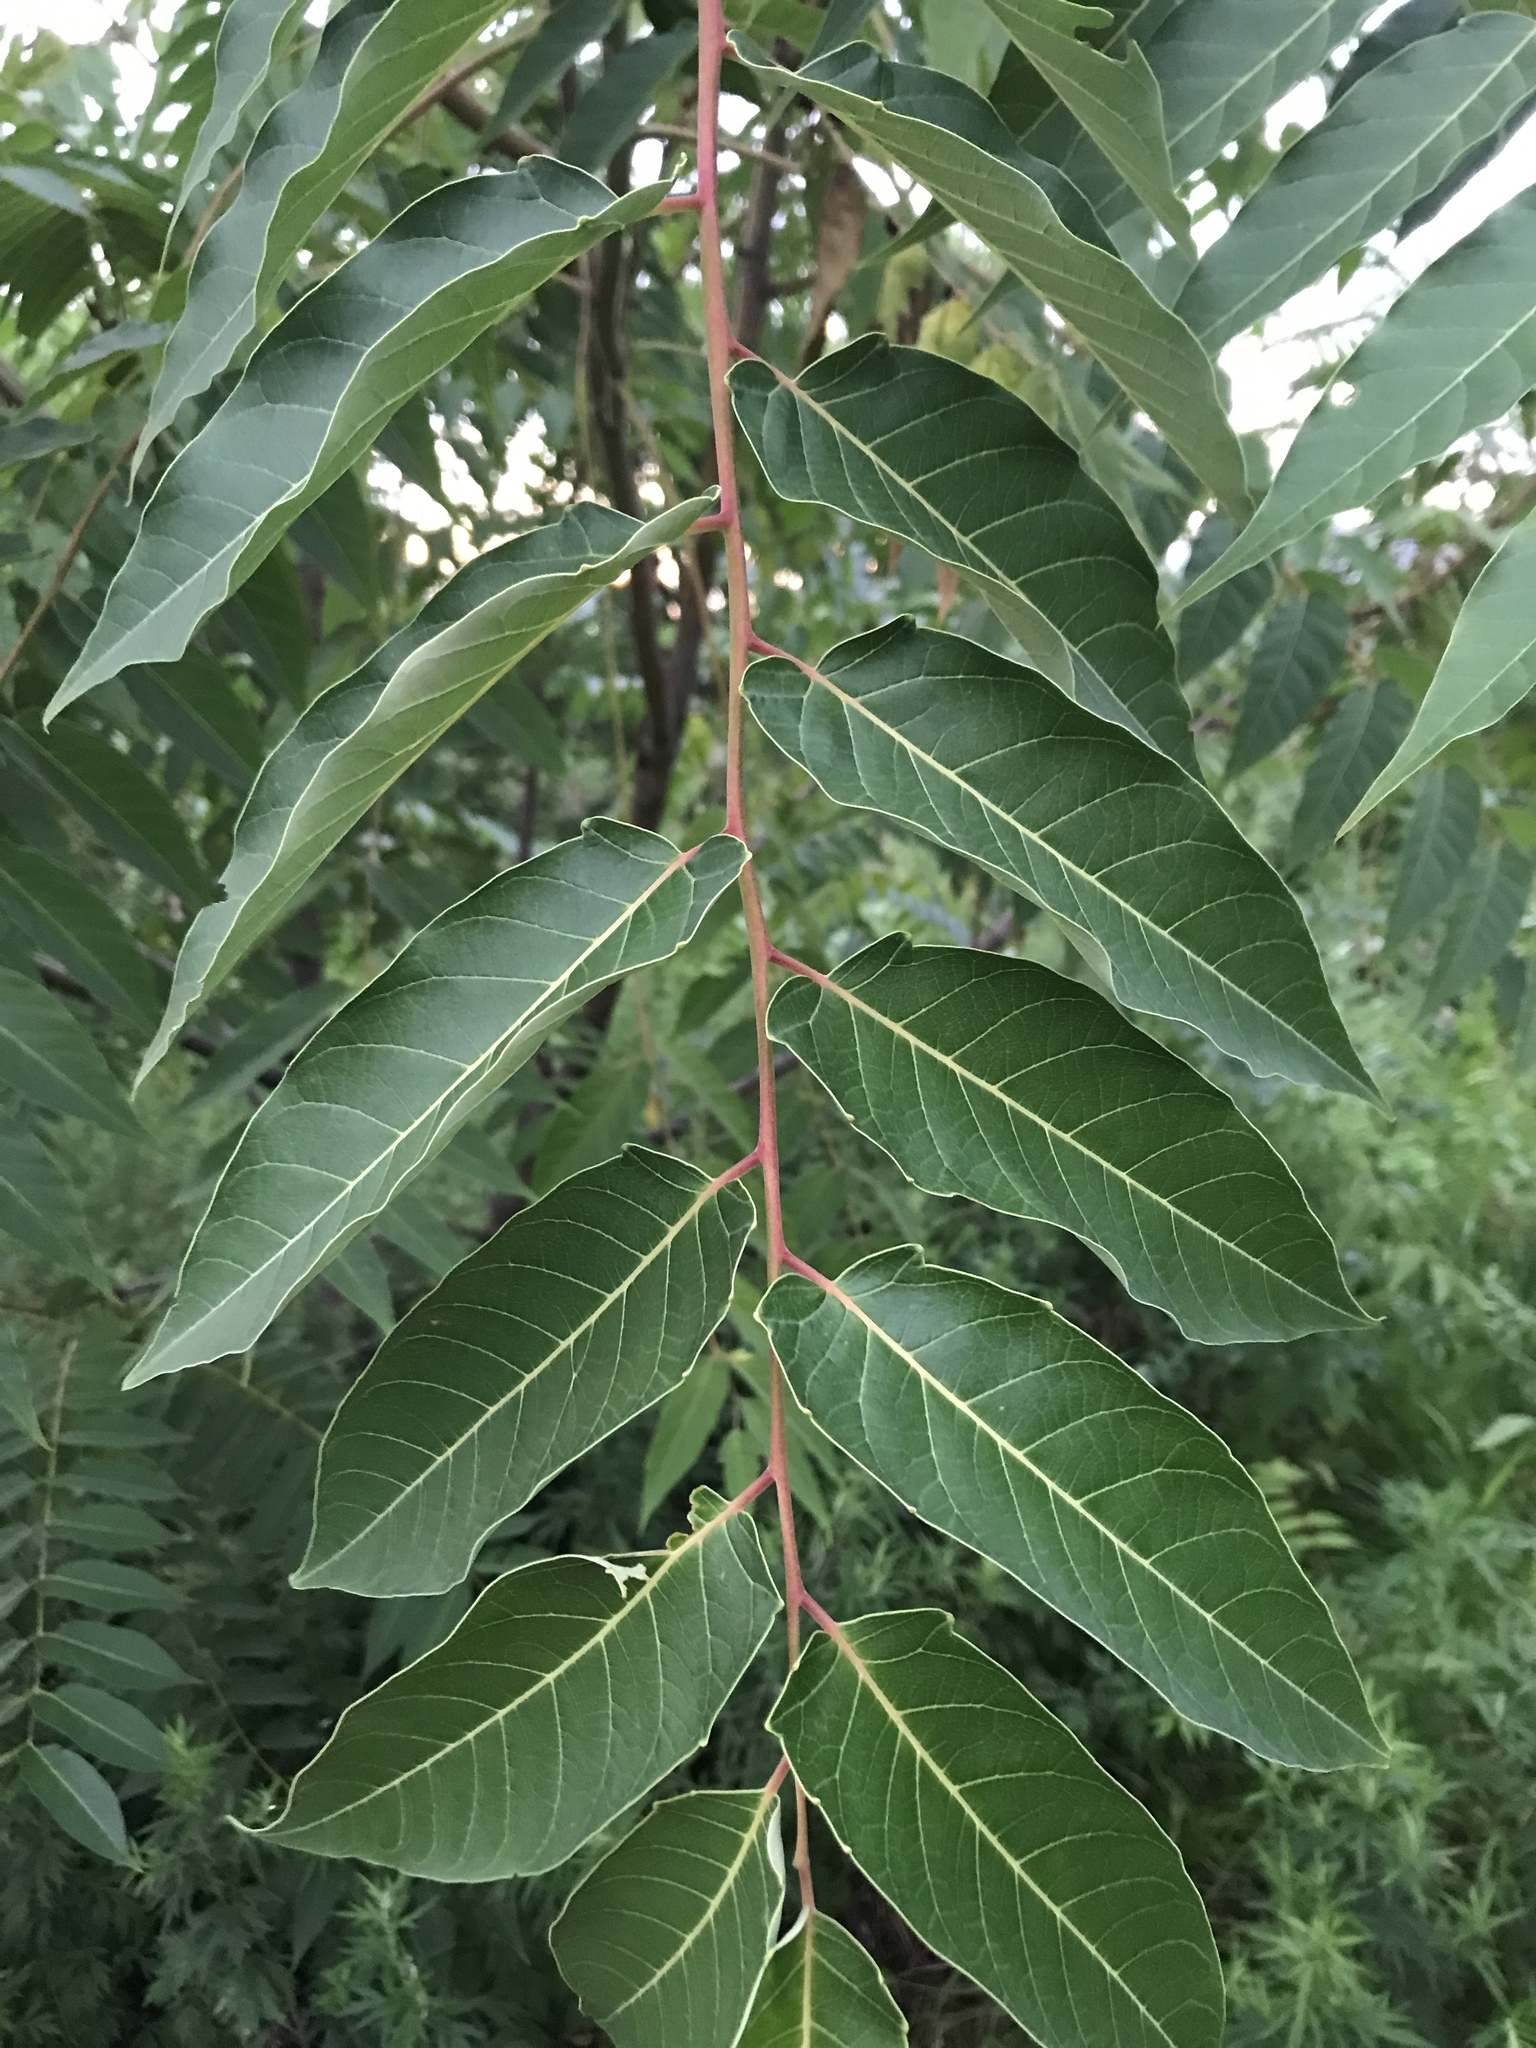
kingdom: Plantae
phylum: Tracheophyta
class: Magnoliopsida
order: Sapindales
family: Simaroubaceae
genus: Ailanthus
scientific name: Ailanthus altissima
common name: Tree-of-heaven
